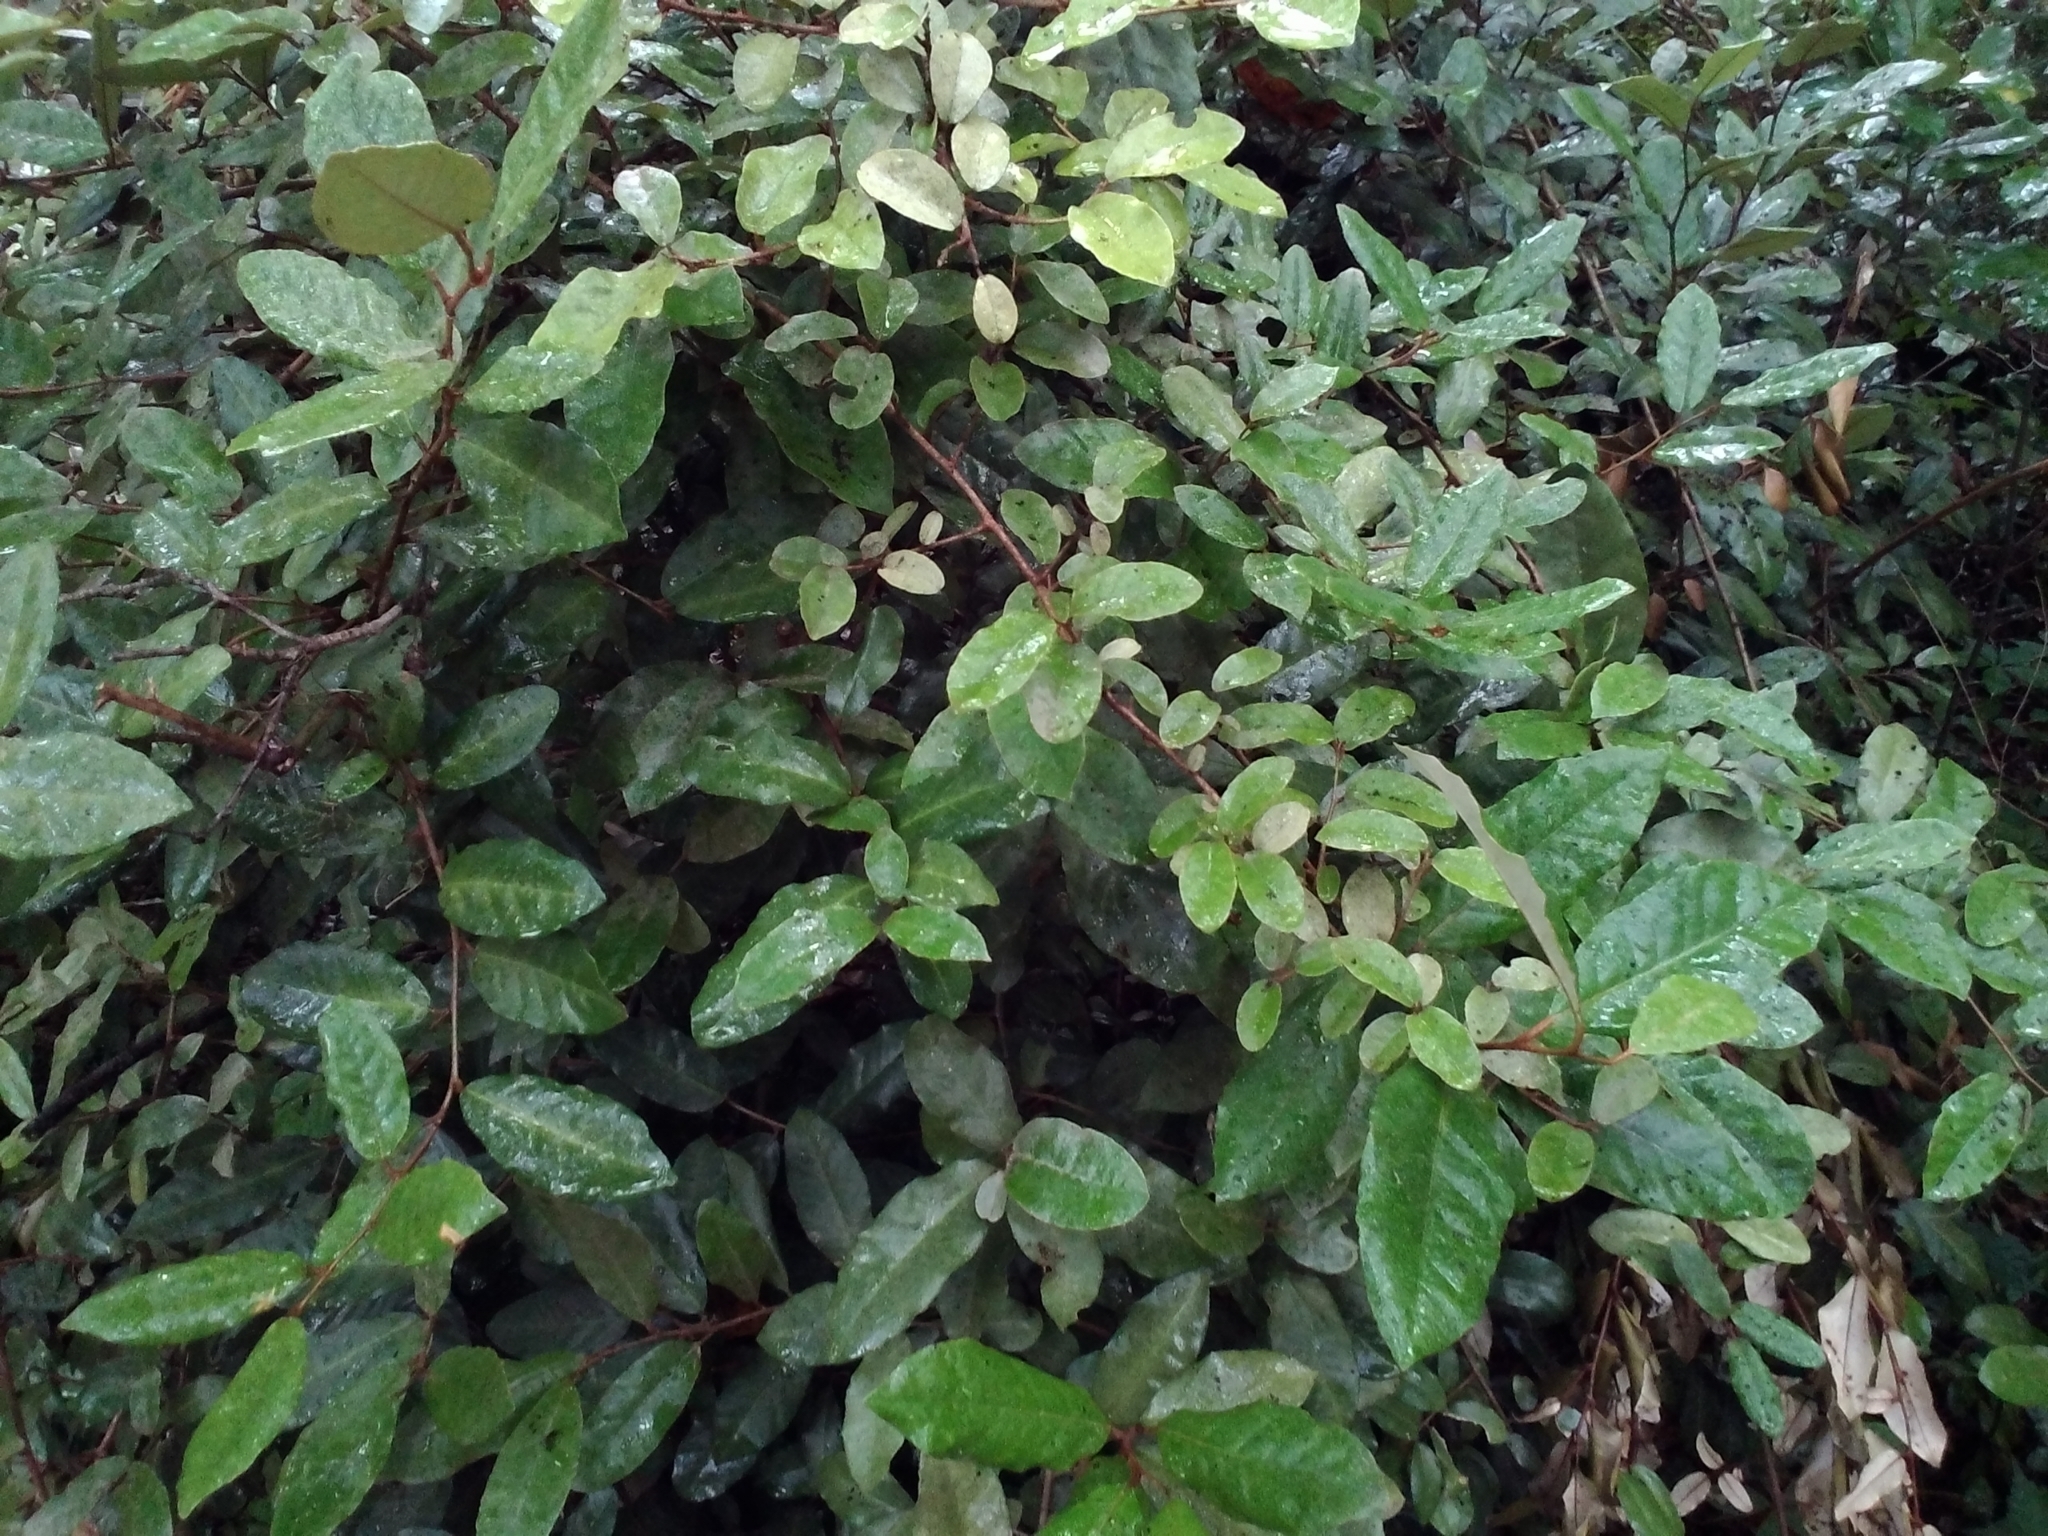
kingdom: Plantae
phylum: Tracheophyta
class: Magnoliopsida
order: Rosales
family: Elaeagnaceae
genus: Elaeagnus
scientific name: Elaeagnus pungens
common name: Spiny oleaster
